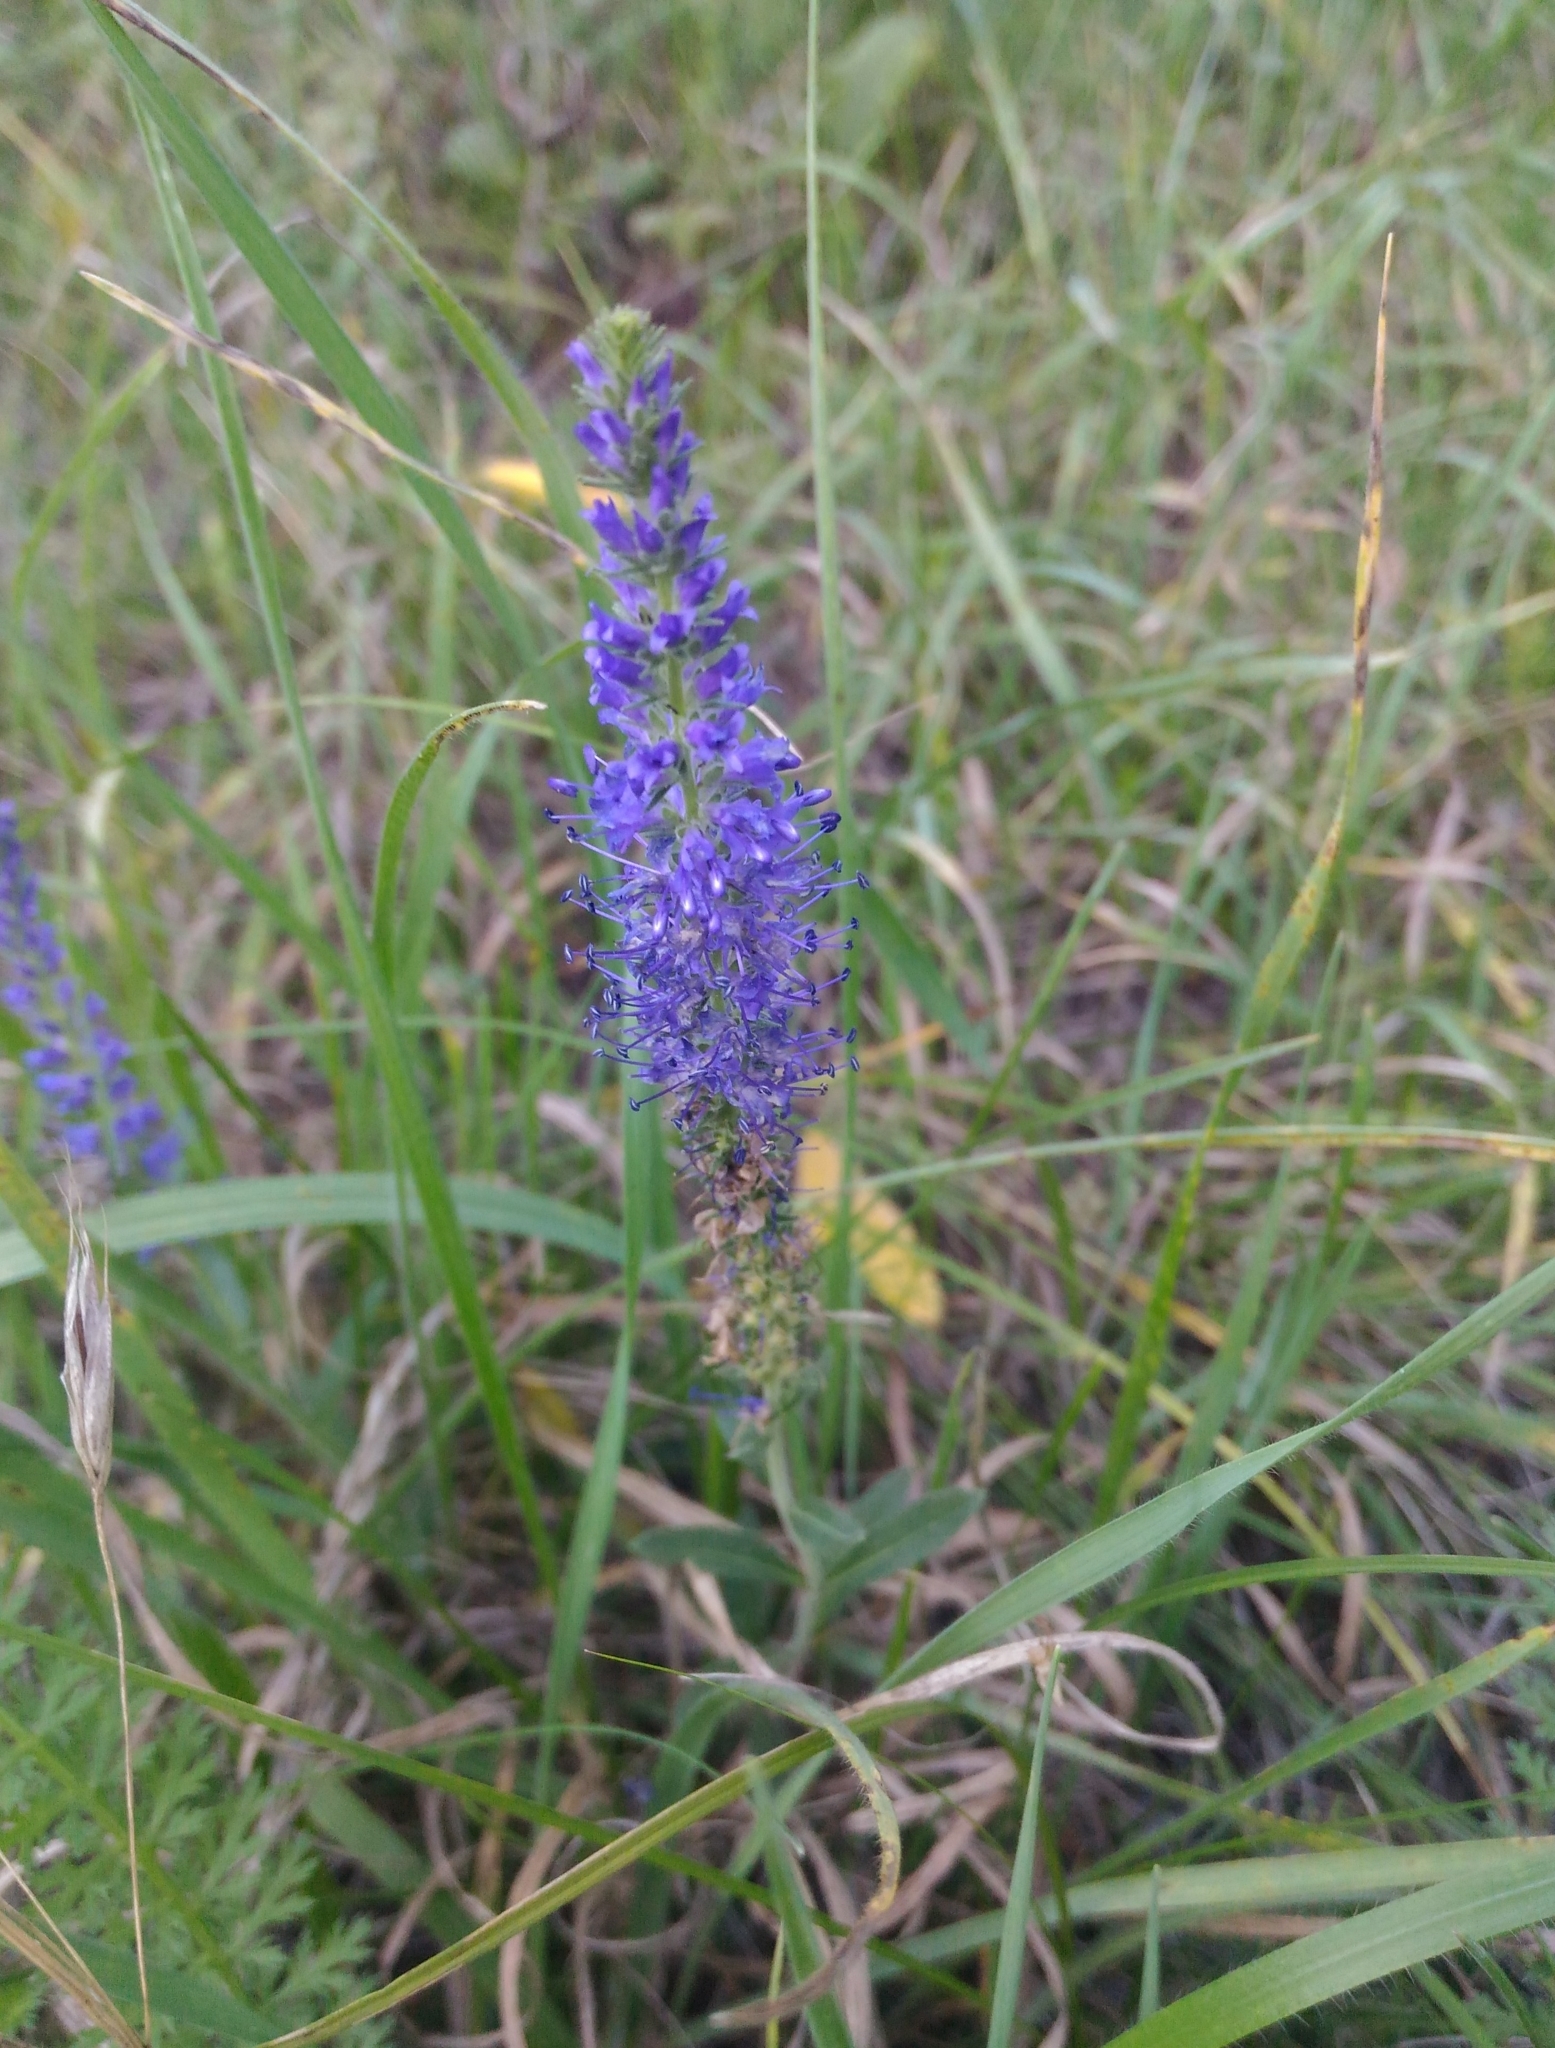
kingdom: Plantae
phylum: Tracheophyta
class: Magnoliopsida
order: Lamiales
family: Plantaginaceae
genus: Veronica
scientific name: Veronica spicata
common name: Spiked speedwell
